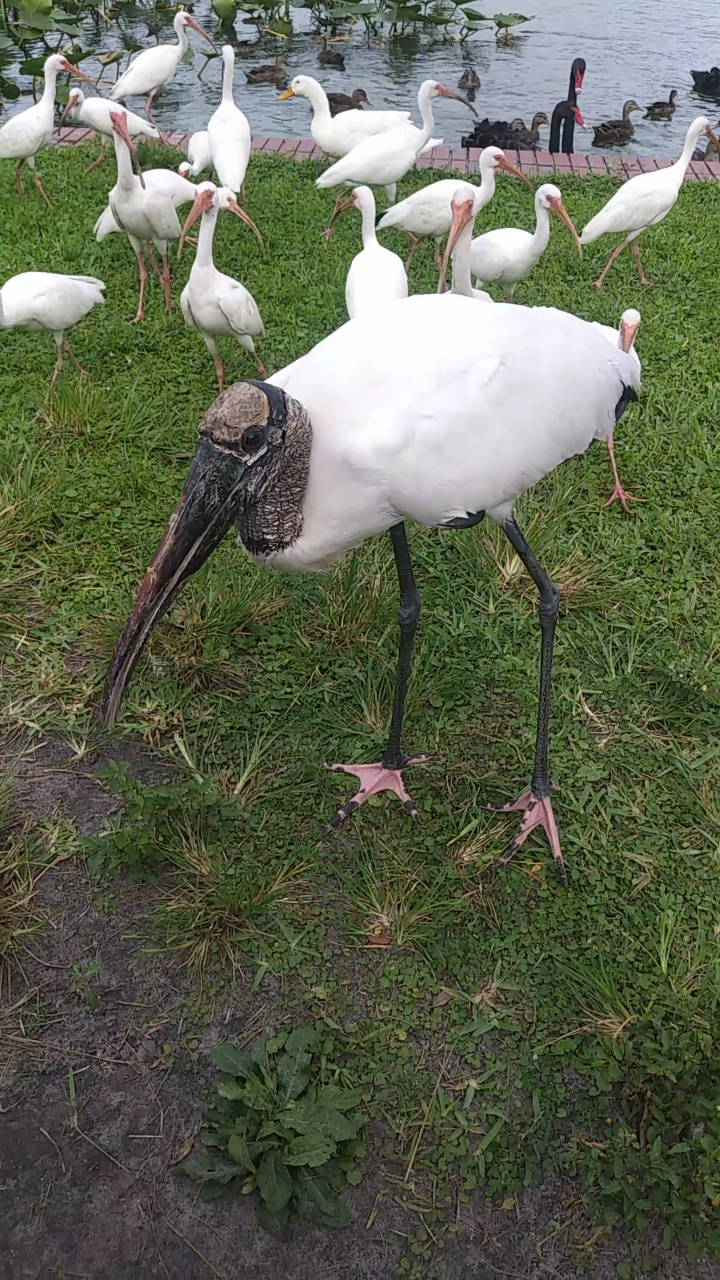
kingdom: Animalia
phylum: Chordata
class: Aves
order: Pelecaniformes
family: Threskiornithidae
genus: Eudocimus
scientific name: Eudocimus albus
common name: White ibis
